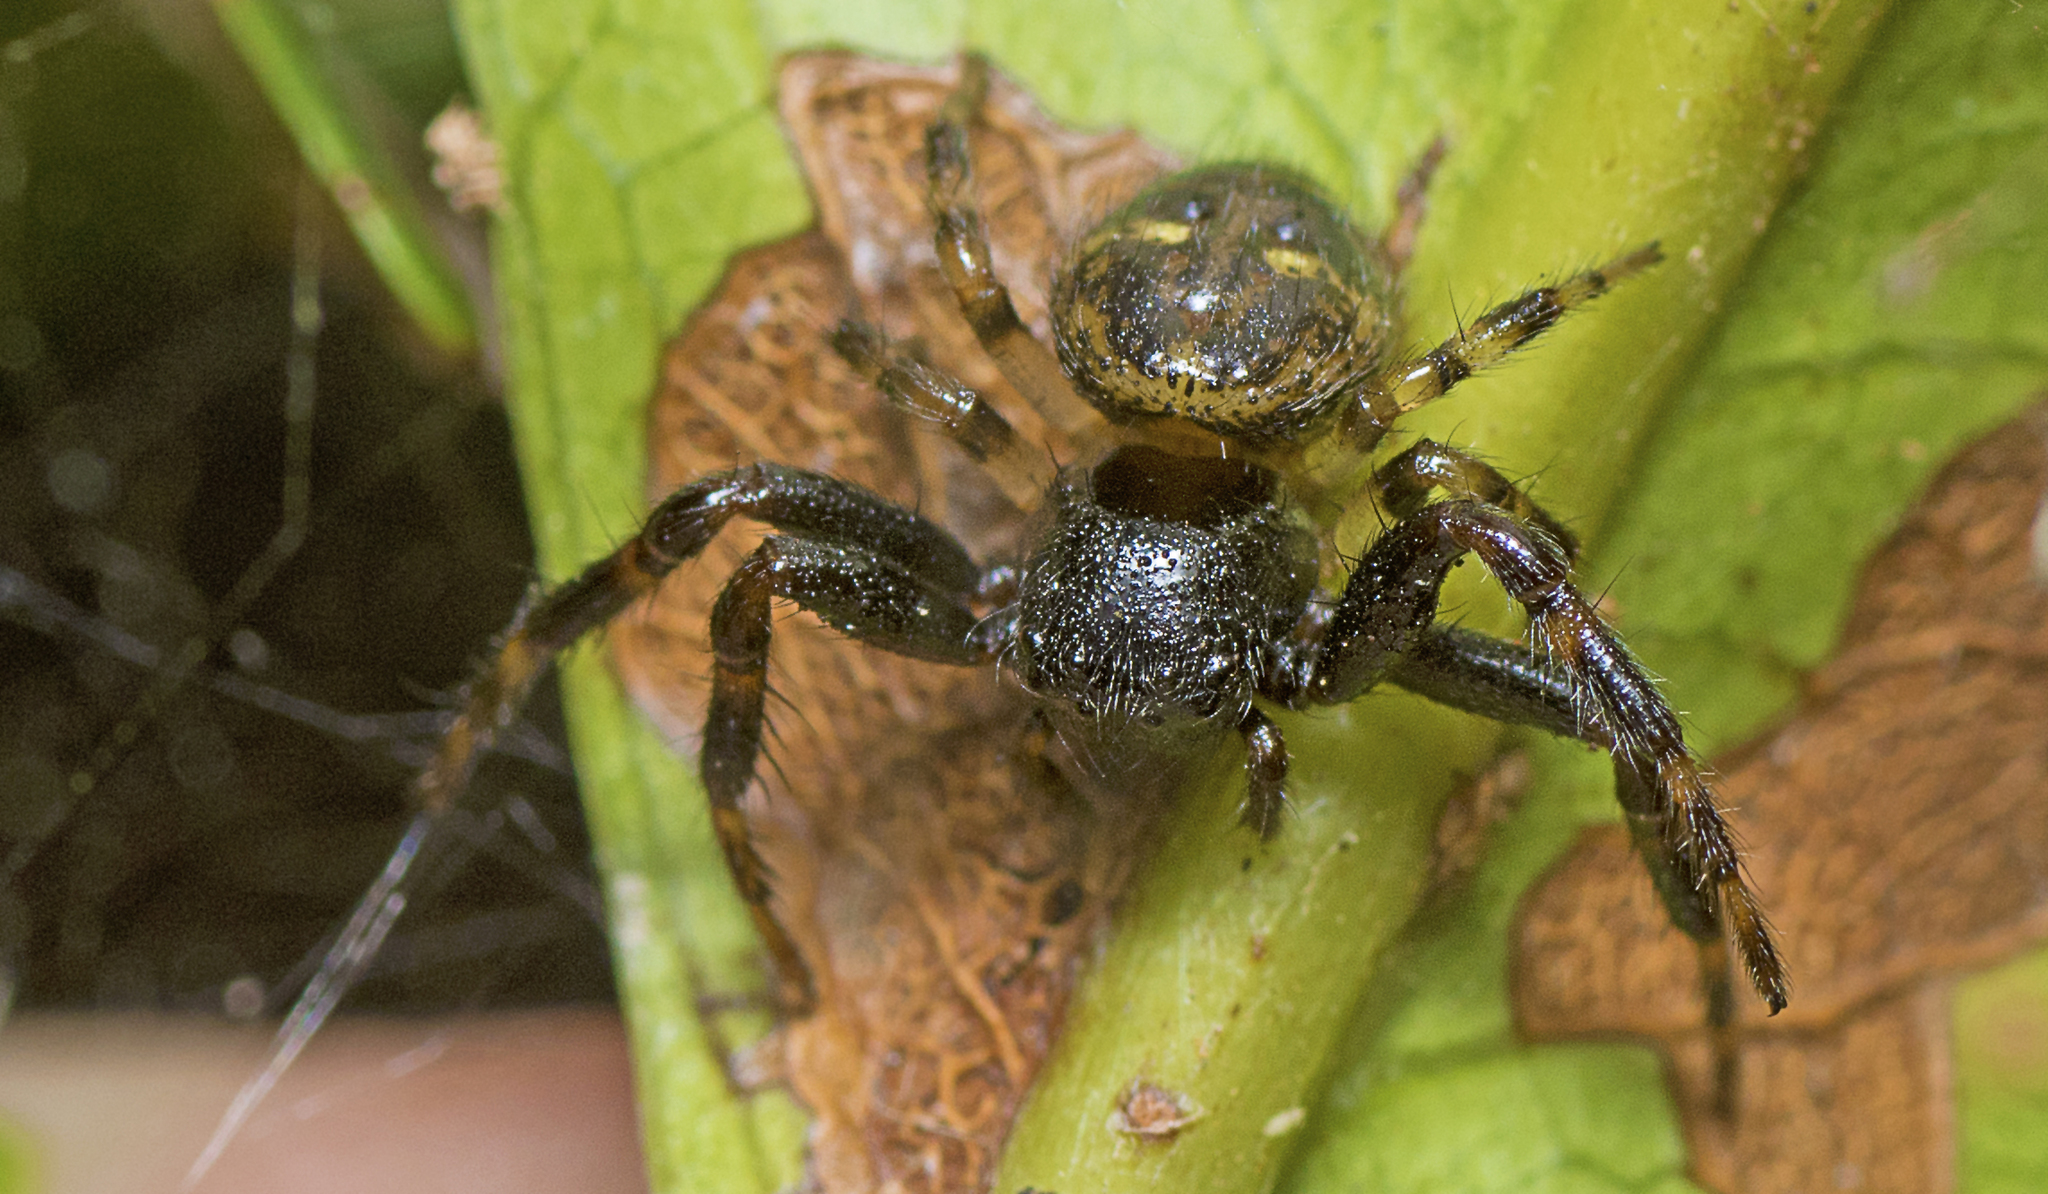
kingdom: Animalia
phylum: Arthropoda
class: Arachnida
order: Araneae
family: Thomisidae
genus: Xysticus
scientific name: Xysticus bimaculatus
